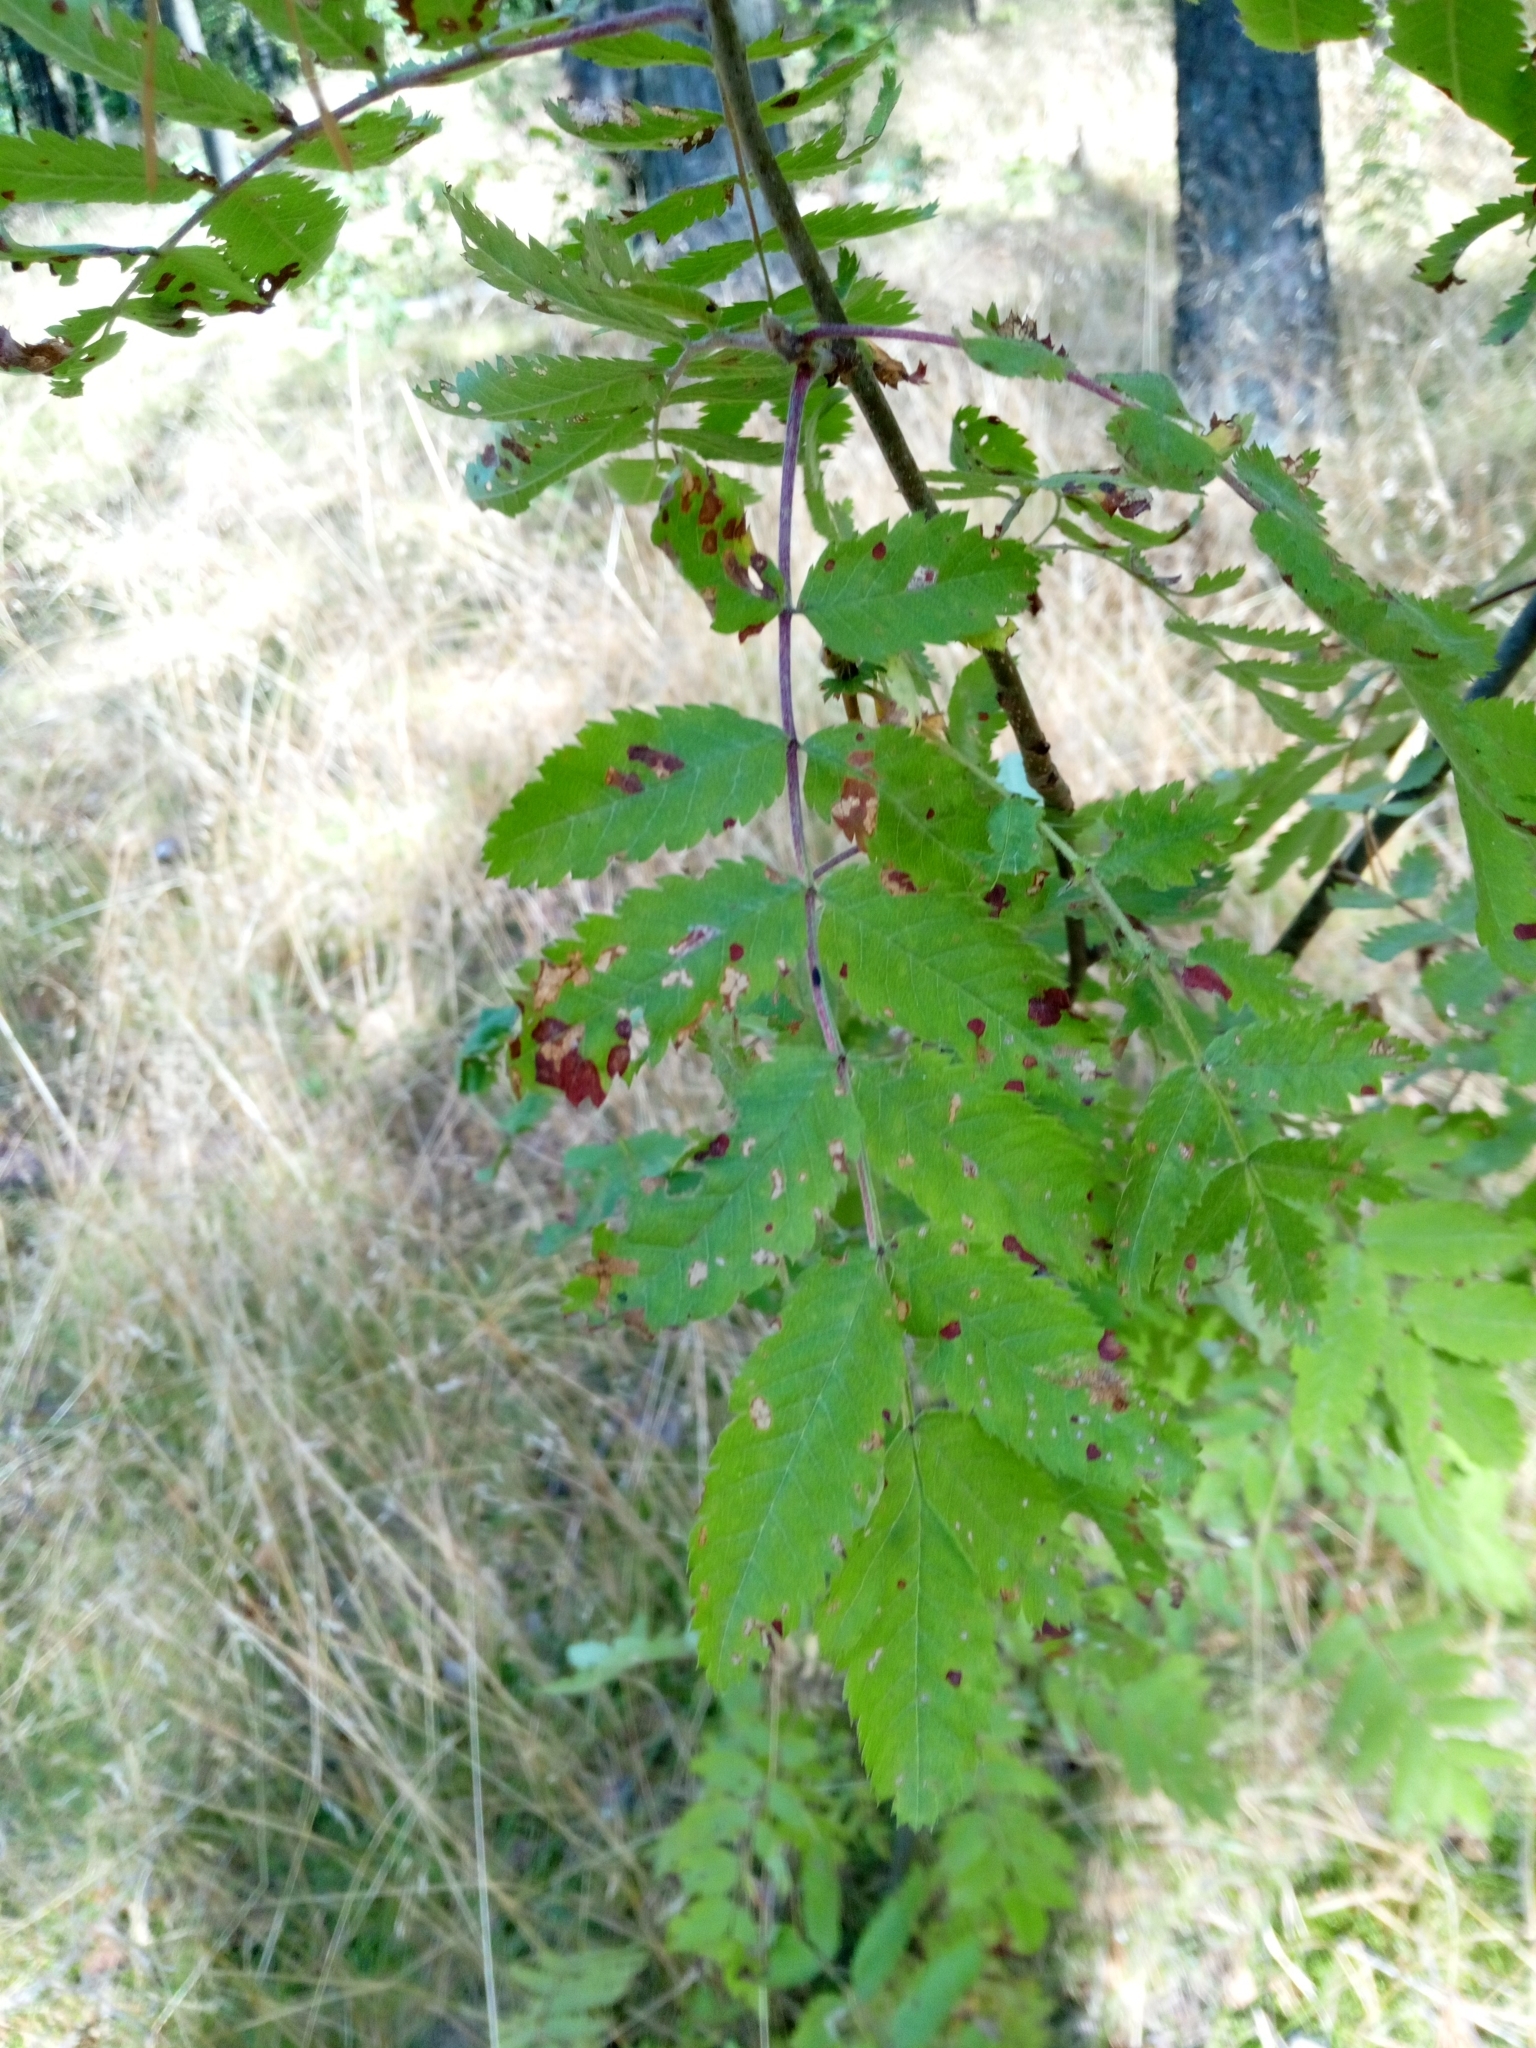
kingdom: Plantae
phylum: Tracheophyta
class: Magnoliopsida
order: Rosales
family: Rosaceae
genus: Sorbus
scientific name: Sorbus aucuparia
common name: Rowan
